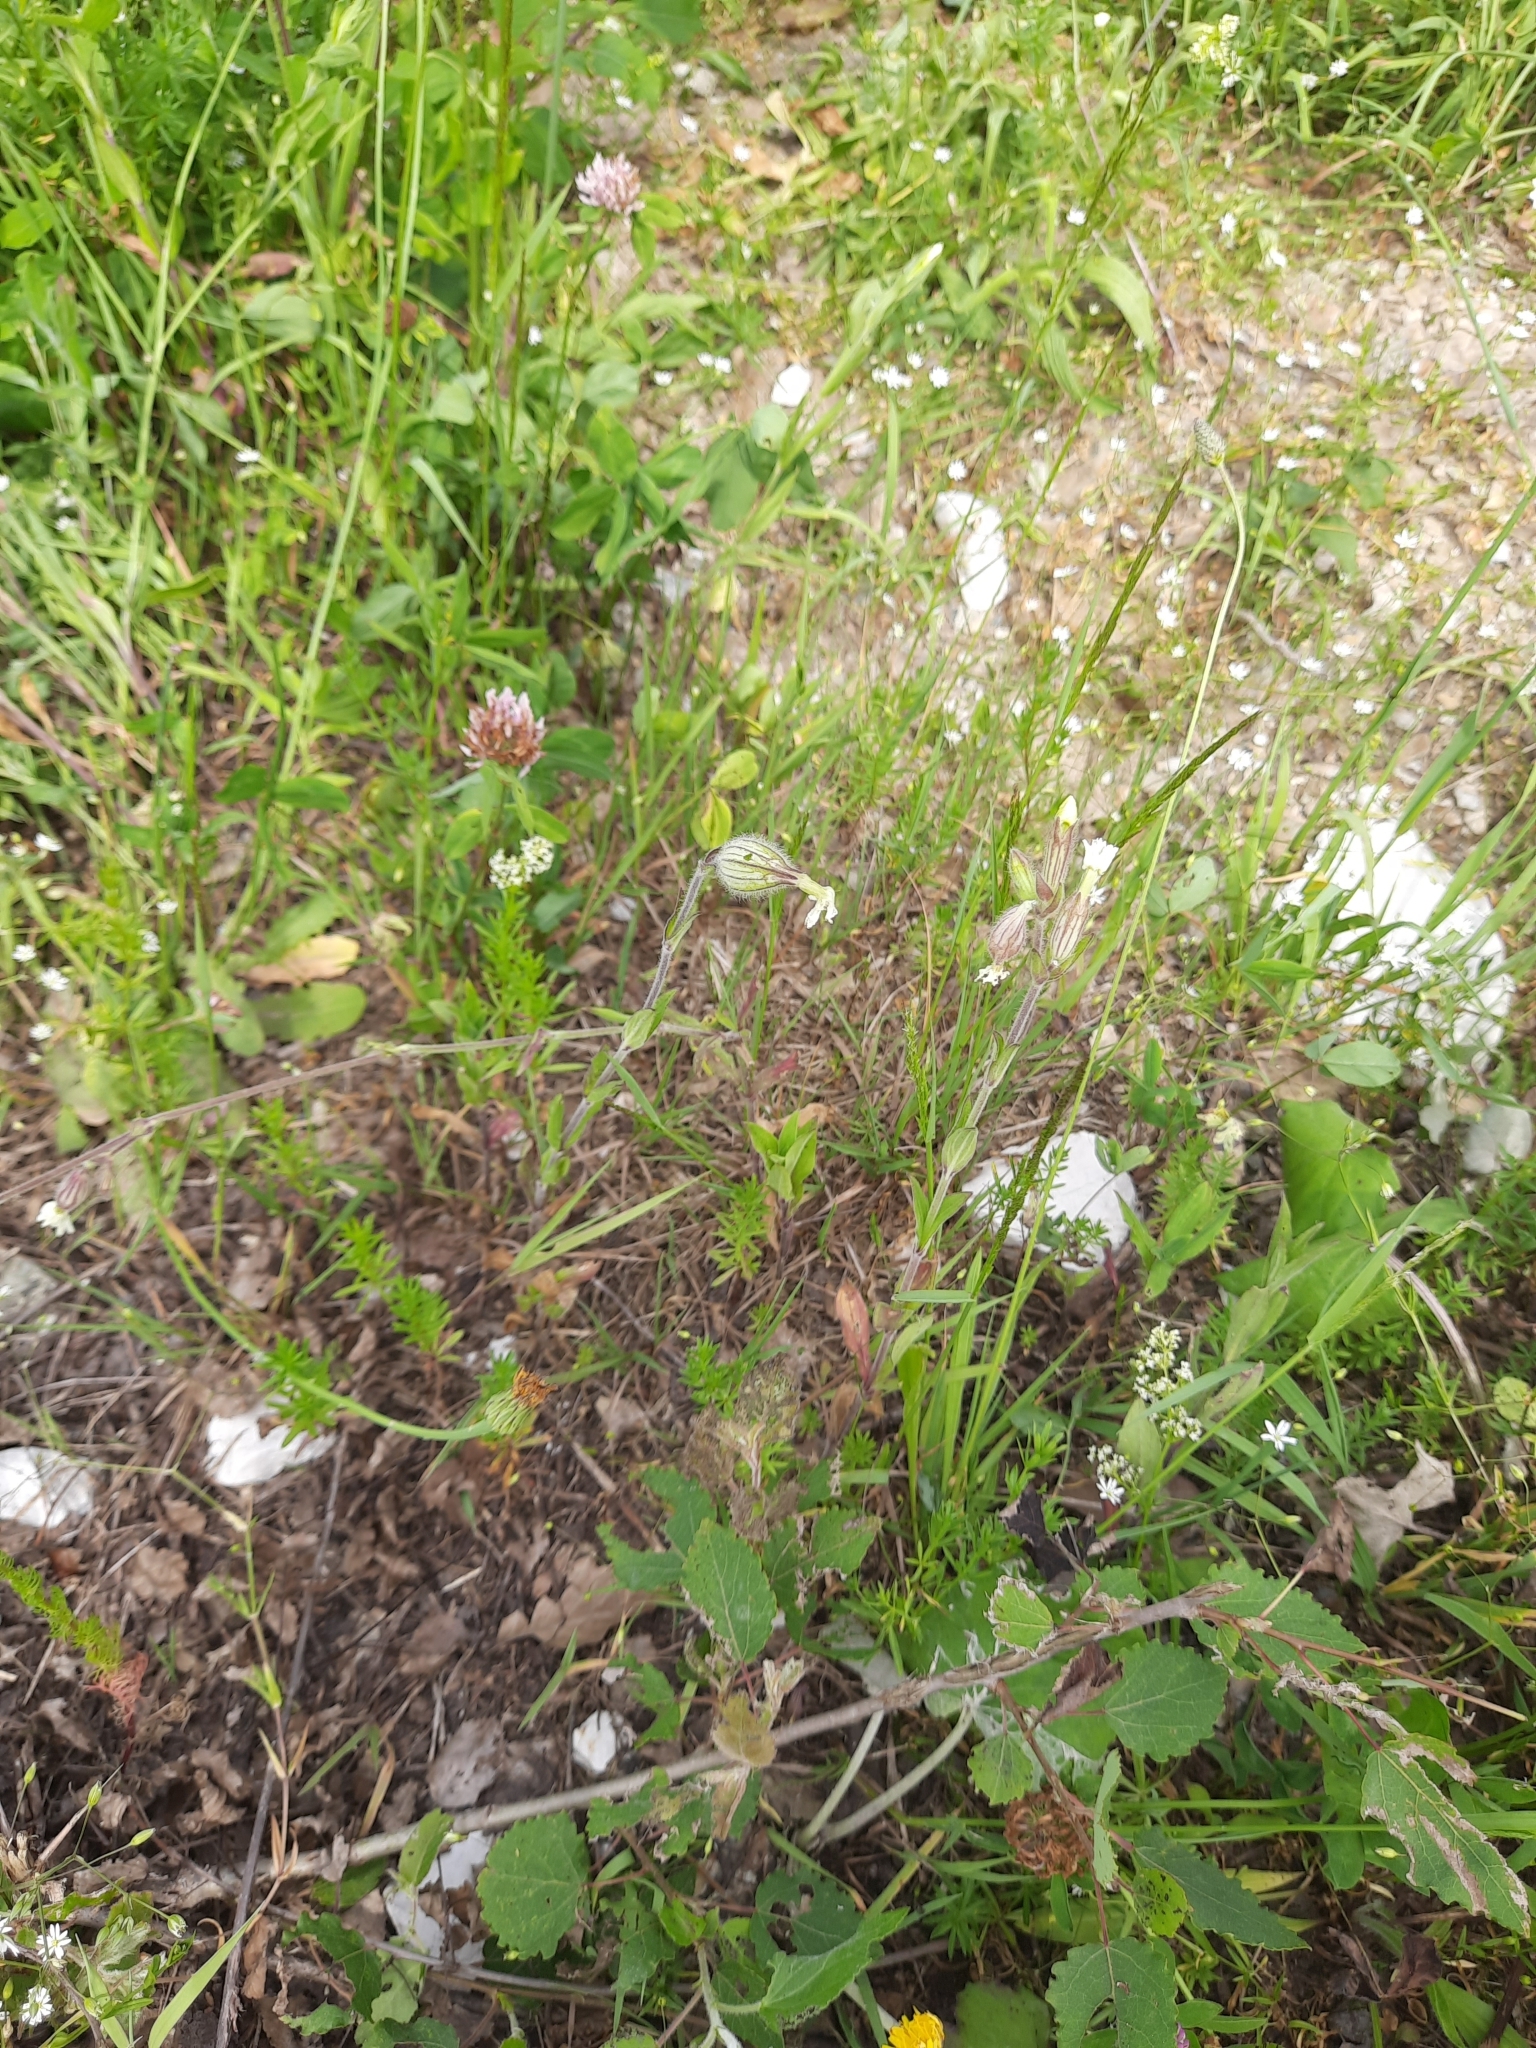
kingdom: Plantae
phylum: Tracheophyta
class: Magnoliopsida
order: Caryophyllales
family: Caryophyllaceae
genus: Silene
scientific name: Silene latifolia
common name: White campion
